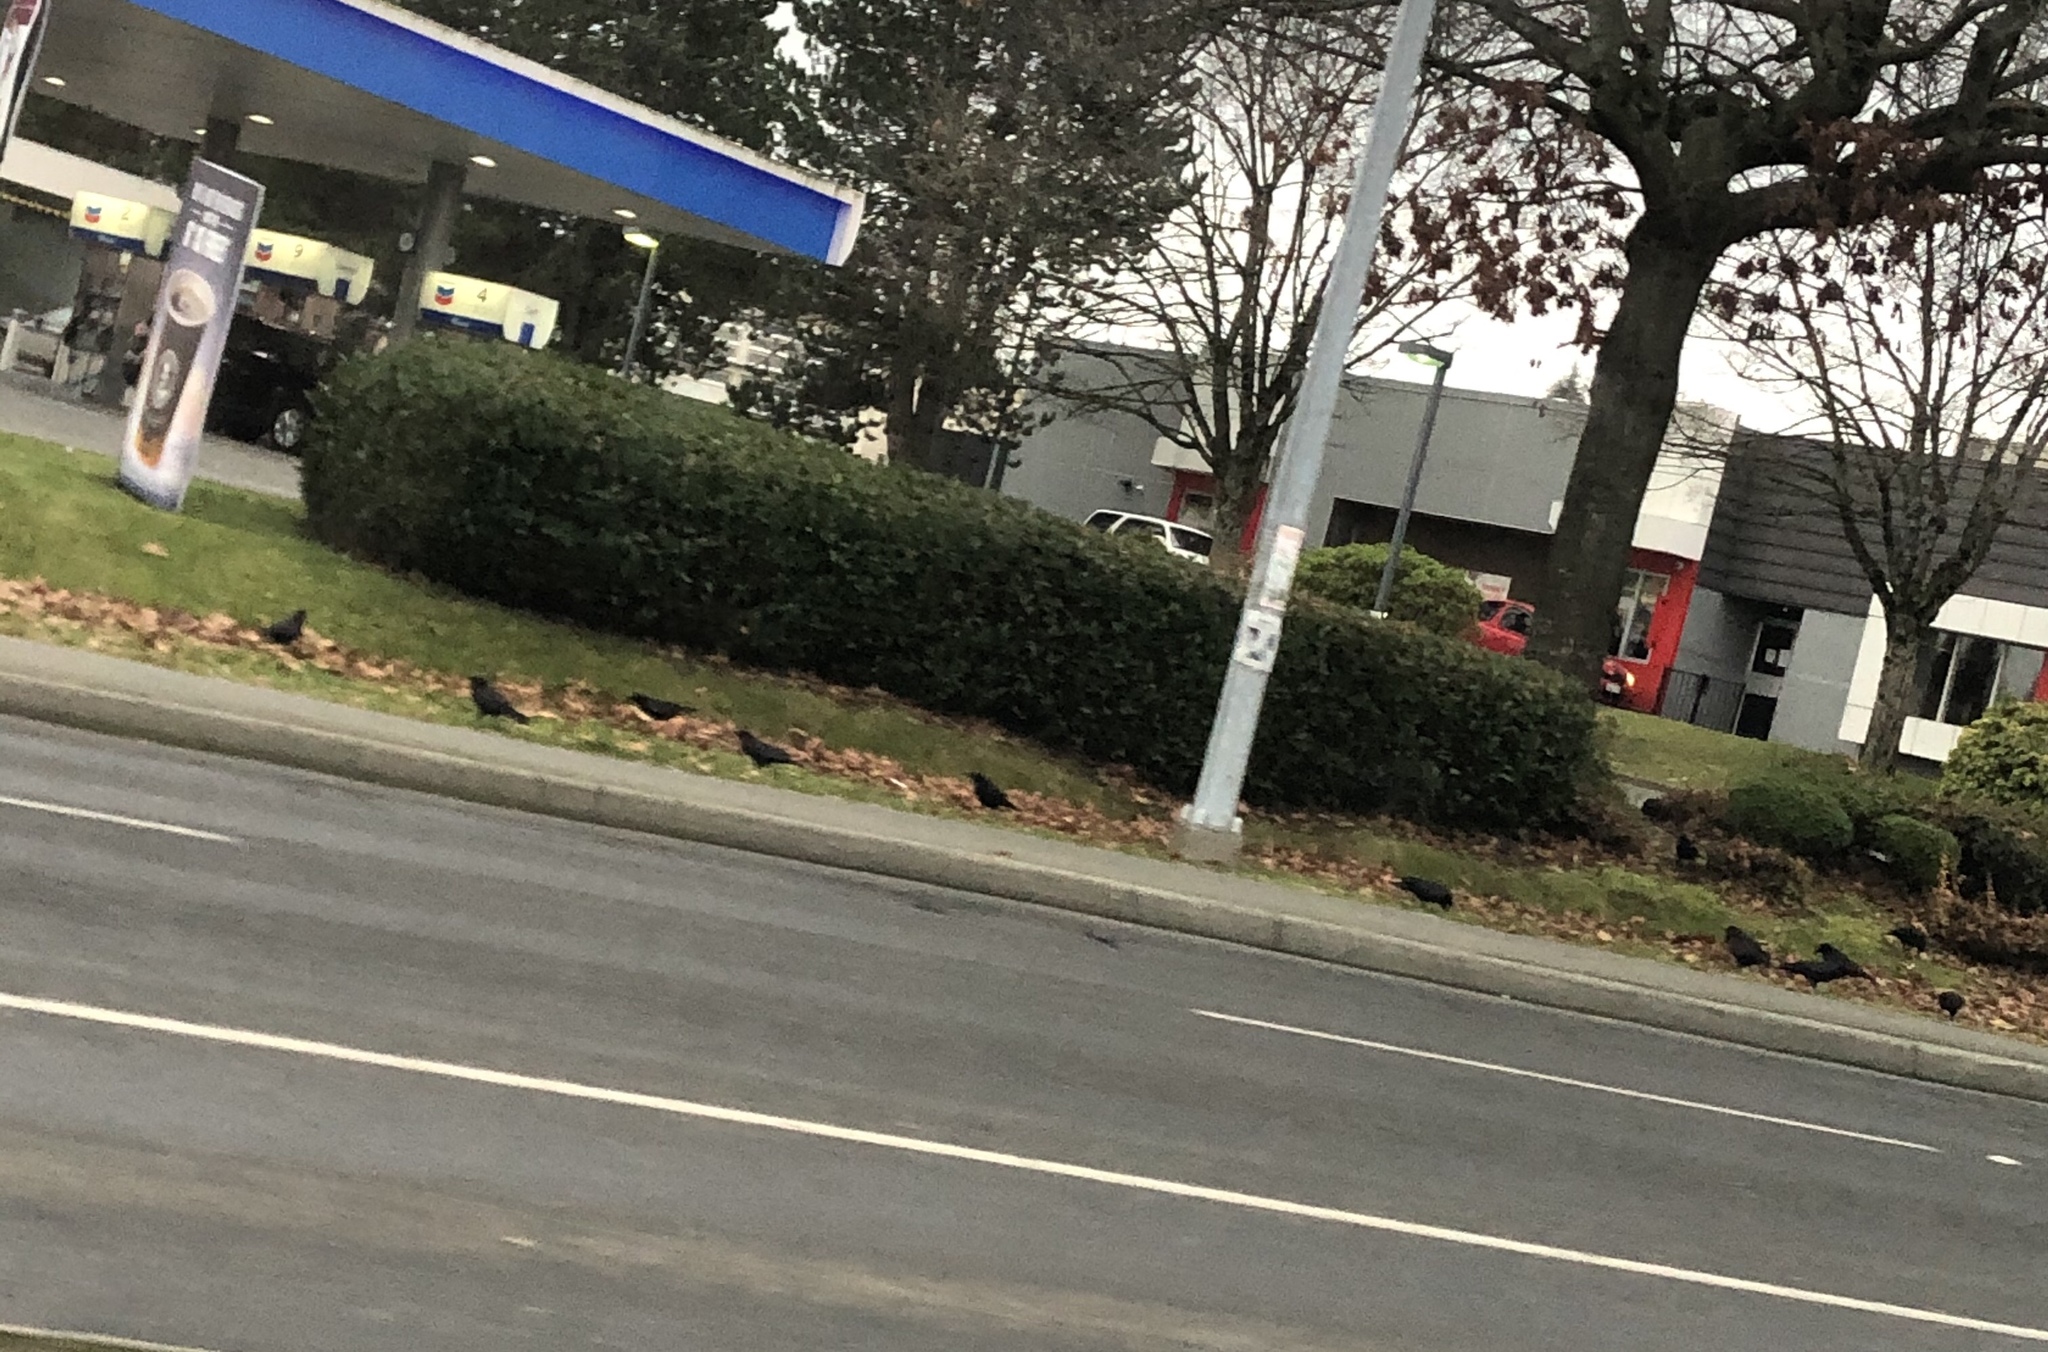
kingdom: Animalia
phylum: Chordata
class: Aves
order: Passeriformes
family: Corvidae
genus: Corvus
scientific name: Corvus brachyrhynchos
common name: American crow
